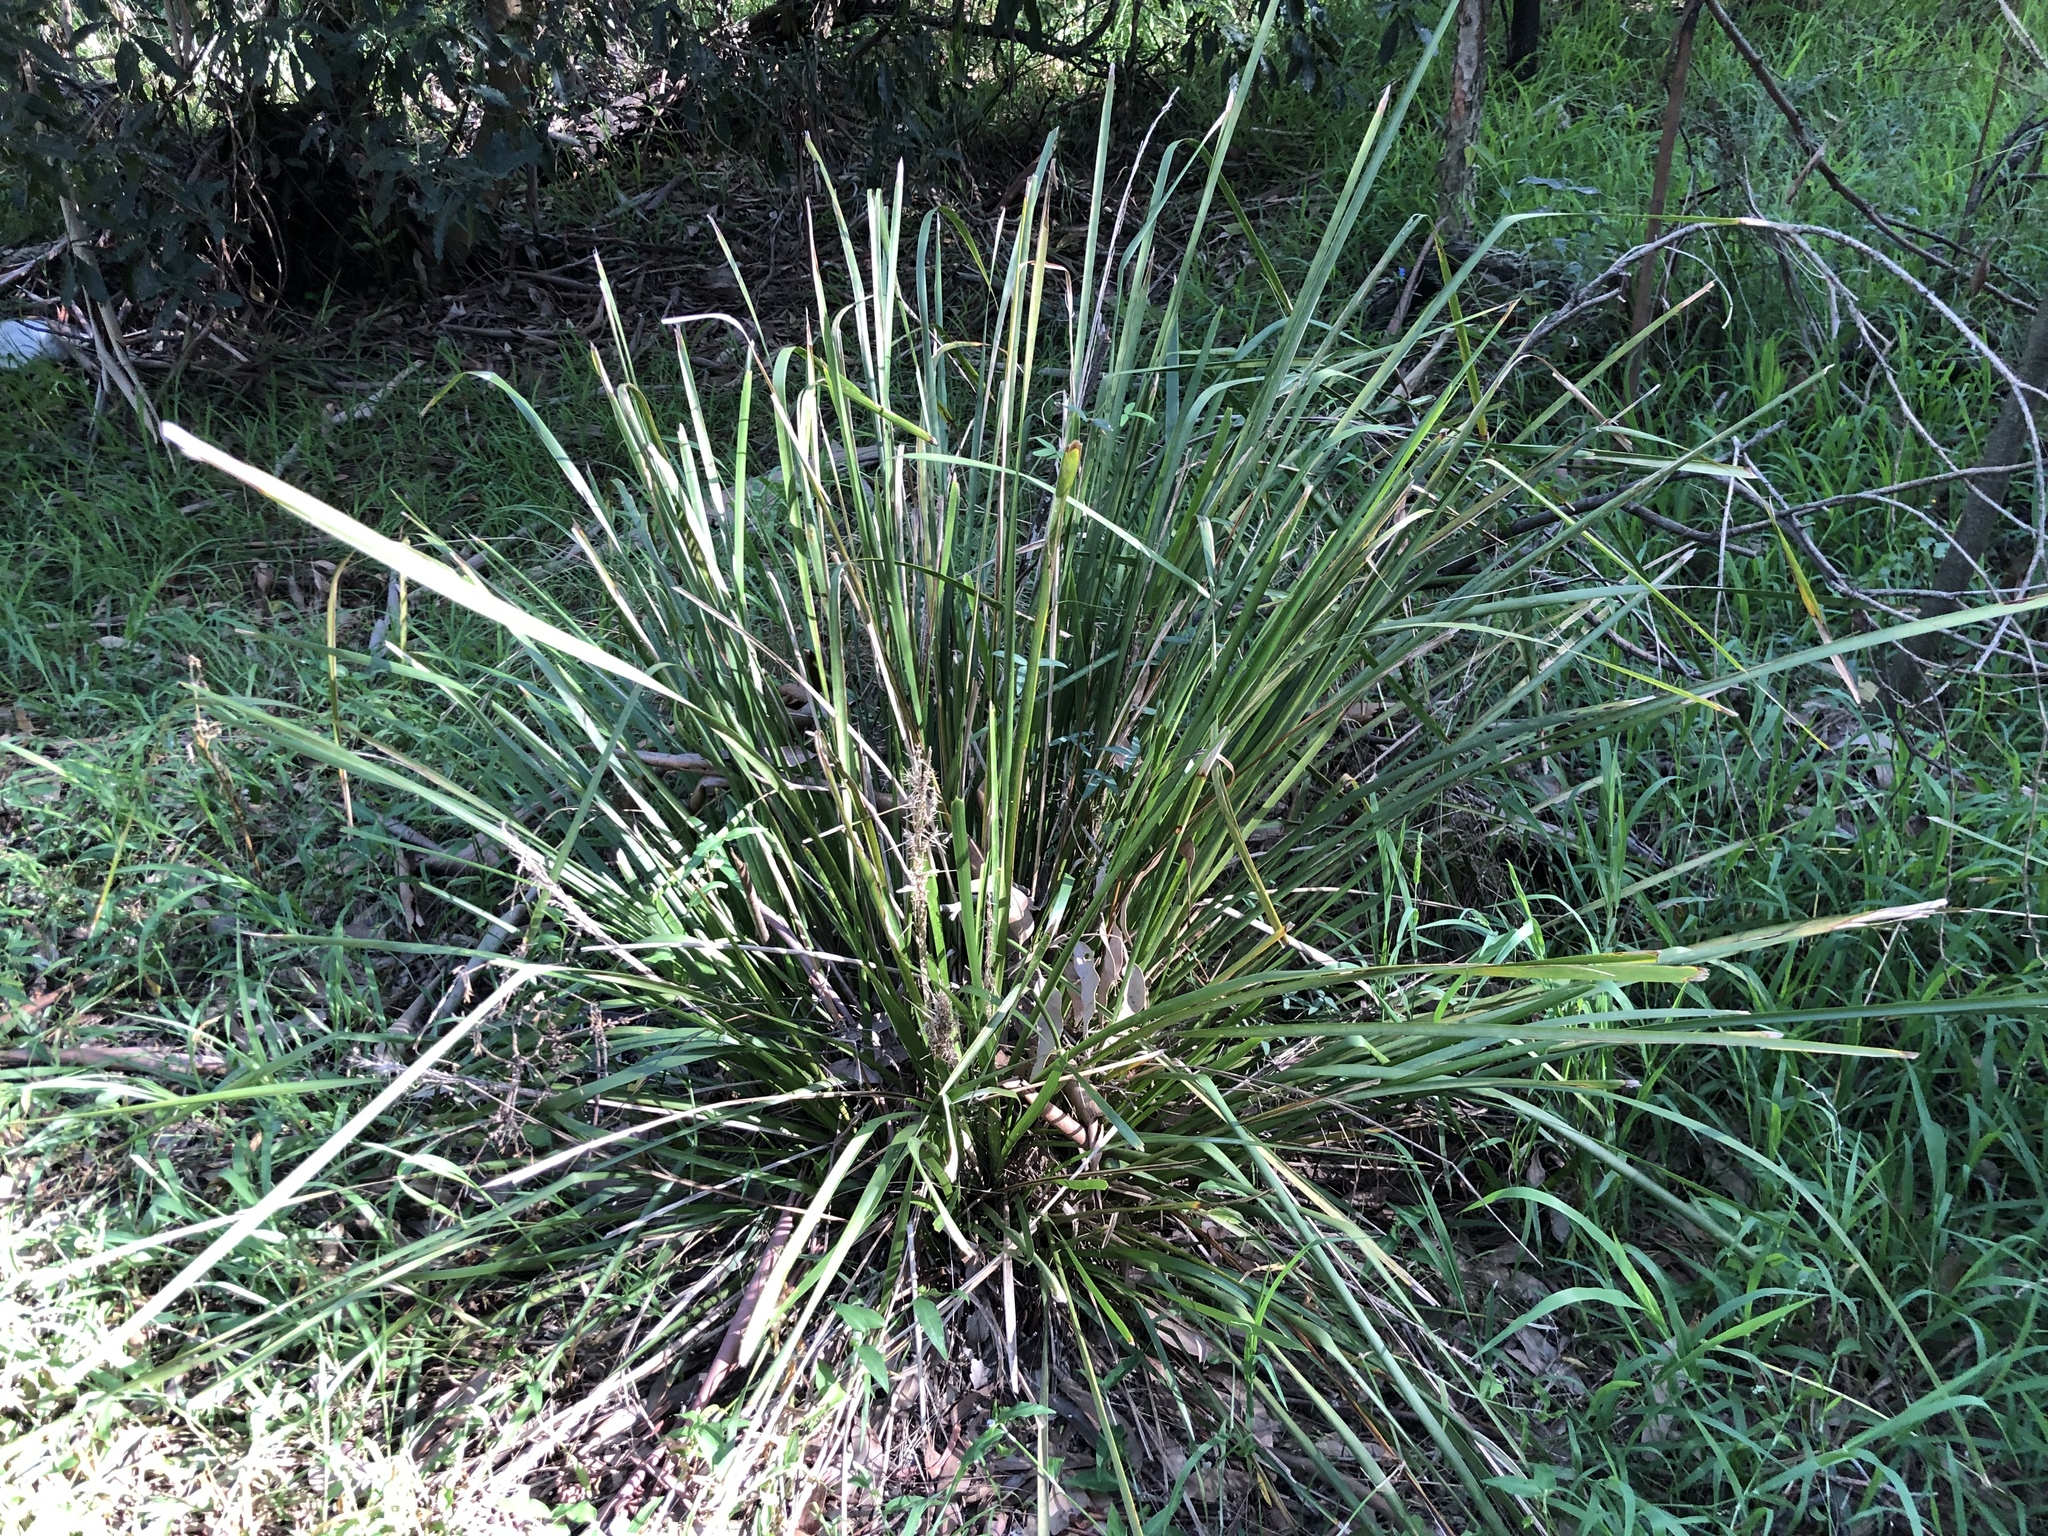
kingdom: Plantae
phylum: Tracheophyta
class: Liliopsida
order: Asparagales
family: Asparagaceae
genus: Lomandra
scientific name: Lomandra longifolia
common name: Longleaf mat-rush
